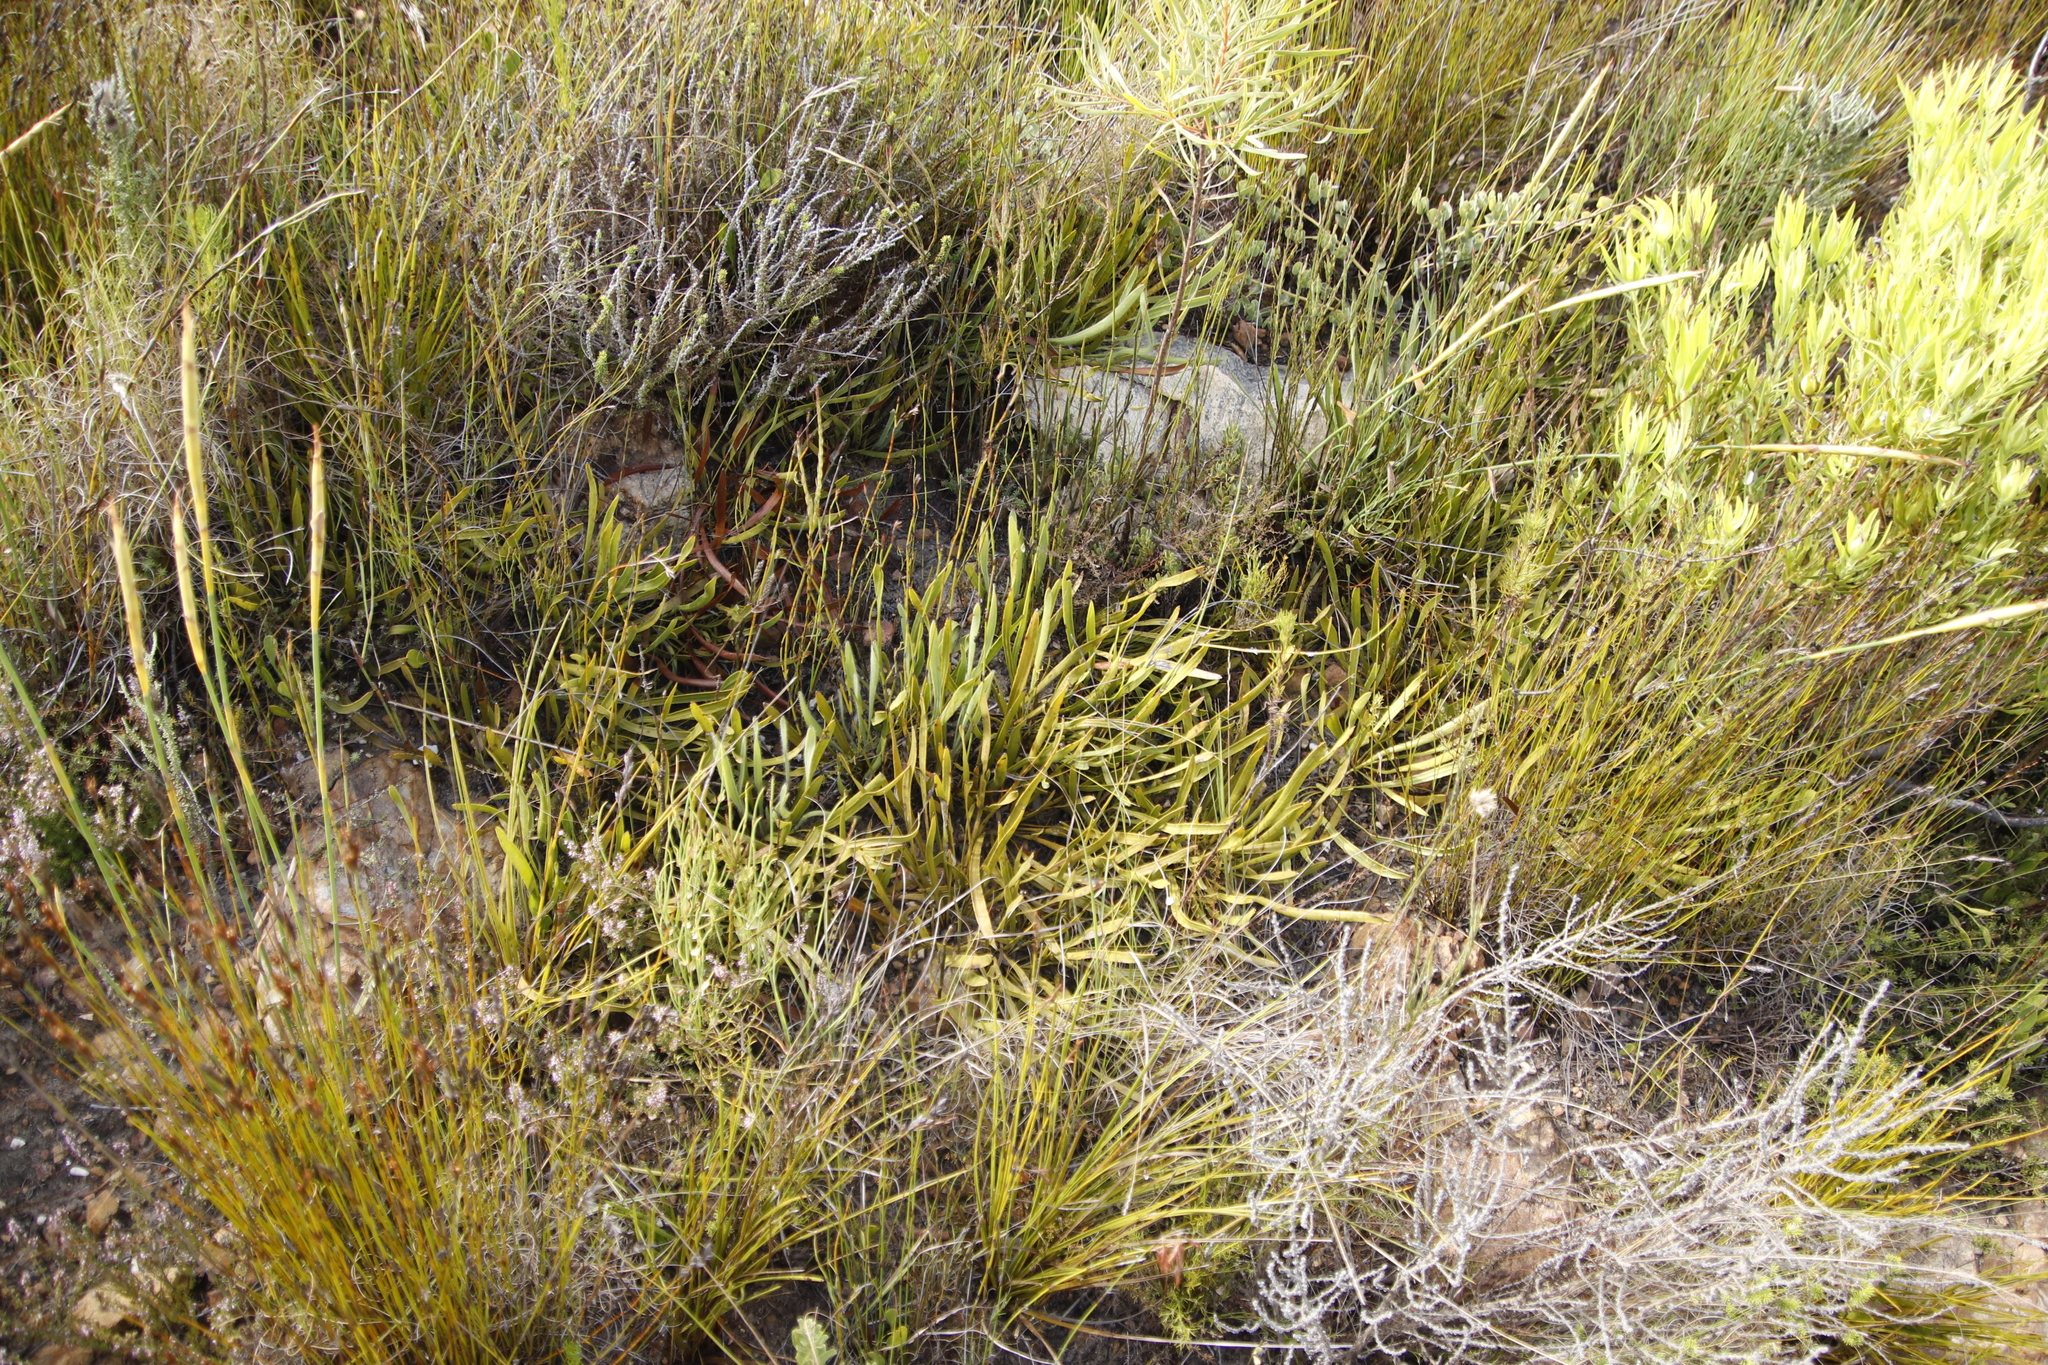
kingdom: Plantae
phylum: Tracheophyta
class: Magnoliopsida
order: Proteales
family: Proteaceae
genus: Protea
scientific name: Protea scabra
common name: Sandpaper-leaf sugarbush
